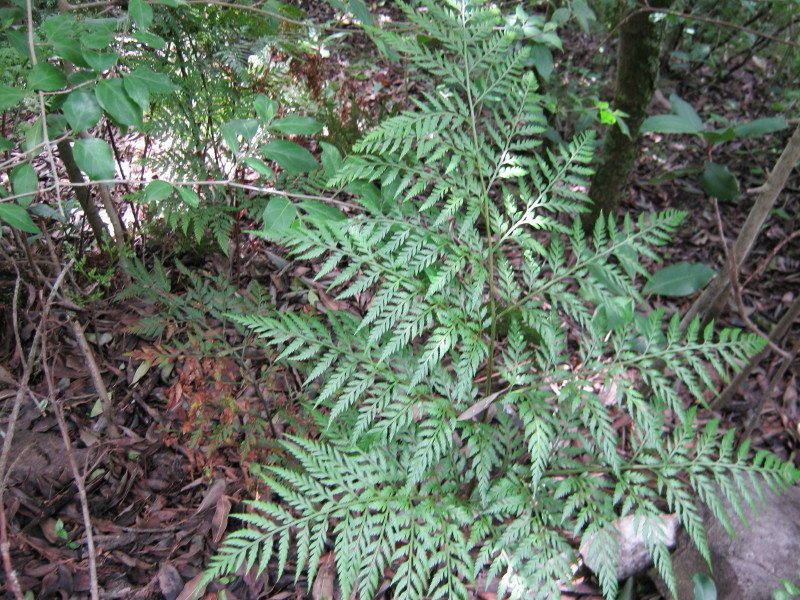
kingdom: Plantae
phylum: Tracheophyta
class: Polypodiopsida
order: Polypodiales
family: Dryopteridaceae
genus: Rumohra
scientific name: Rumohra adiantiformis
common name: Leather fern
